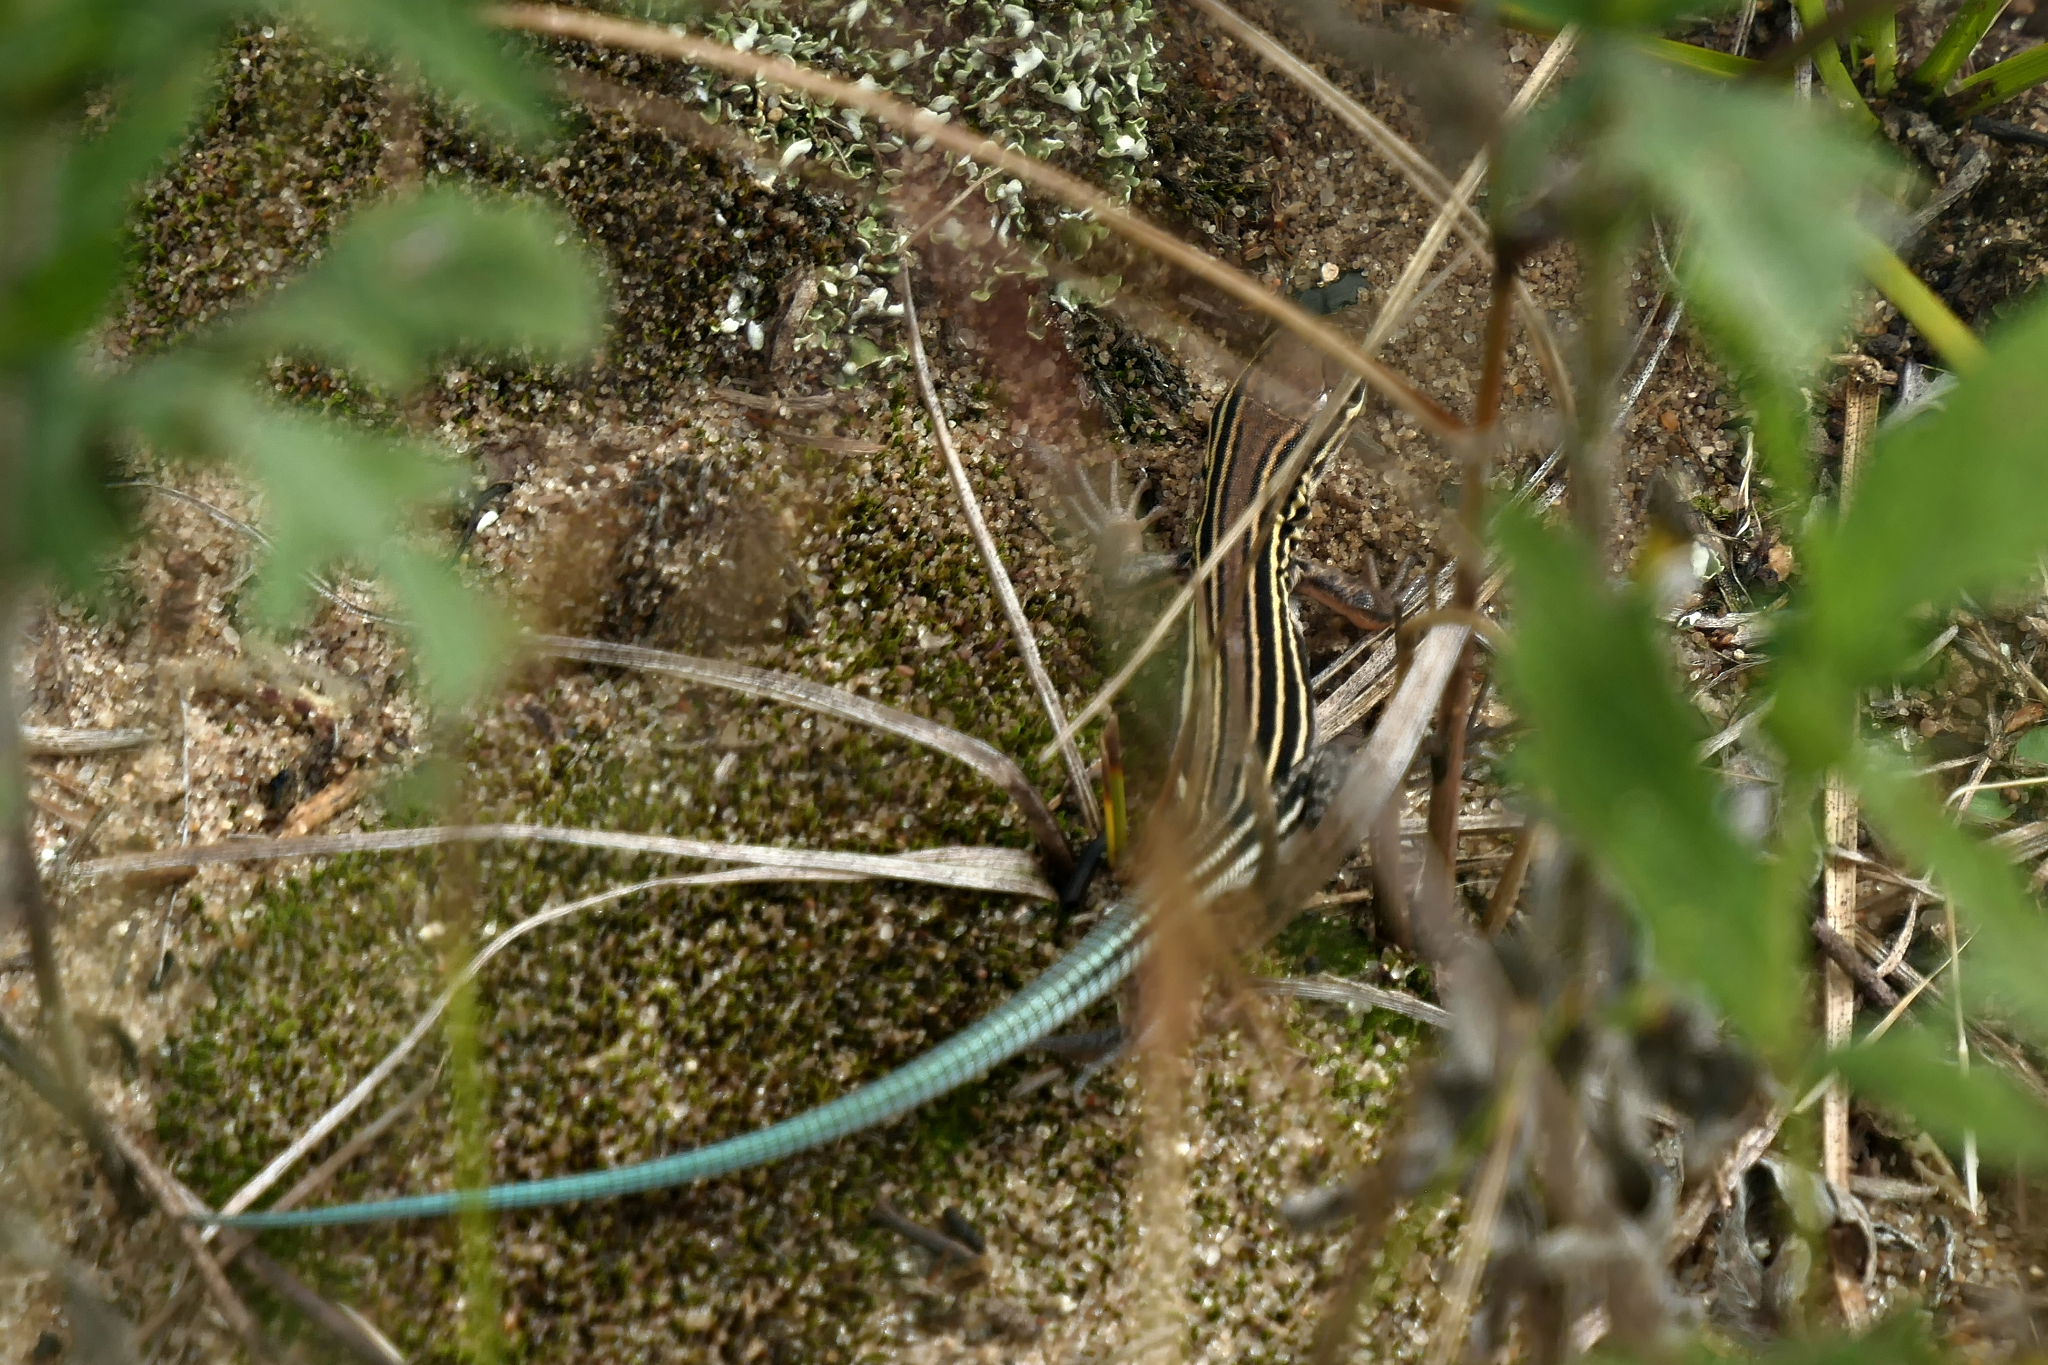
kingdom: Animalia
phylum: Chordata
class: Squamata
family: Teiidae
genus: Aspidoscelis
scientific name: Aspidoscelis sexlineatus
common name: Six-lined racerunner
